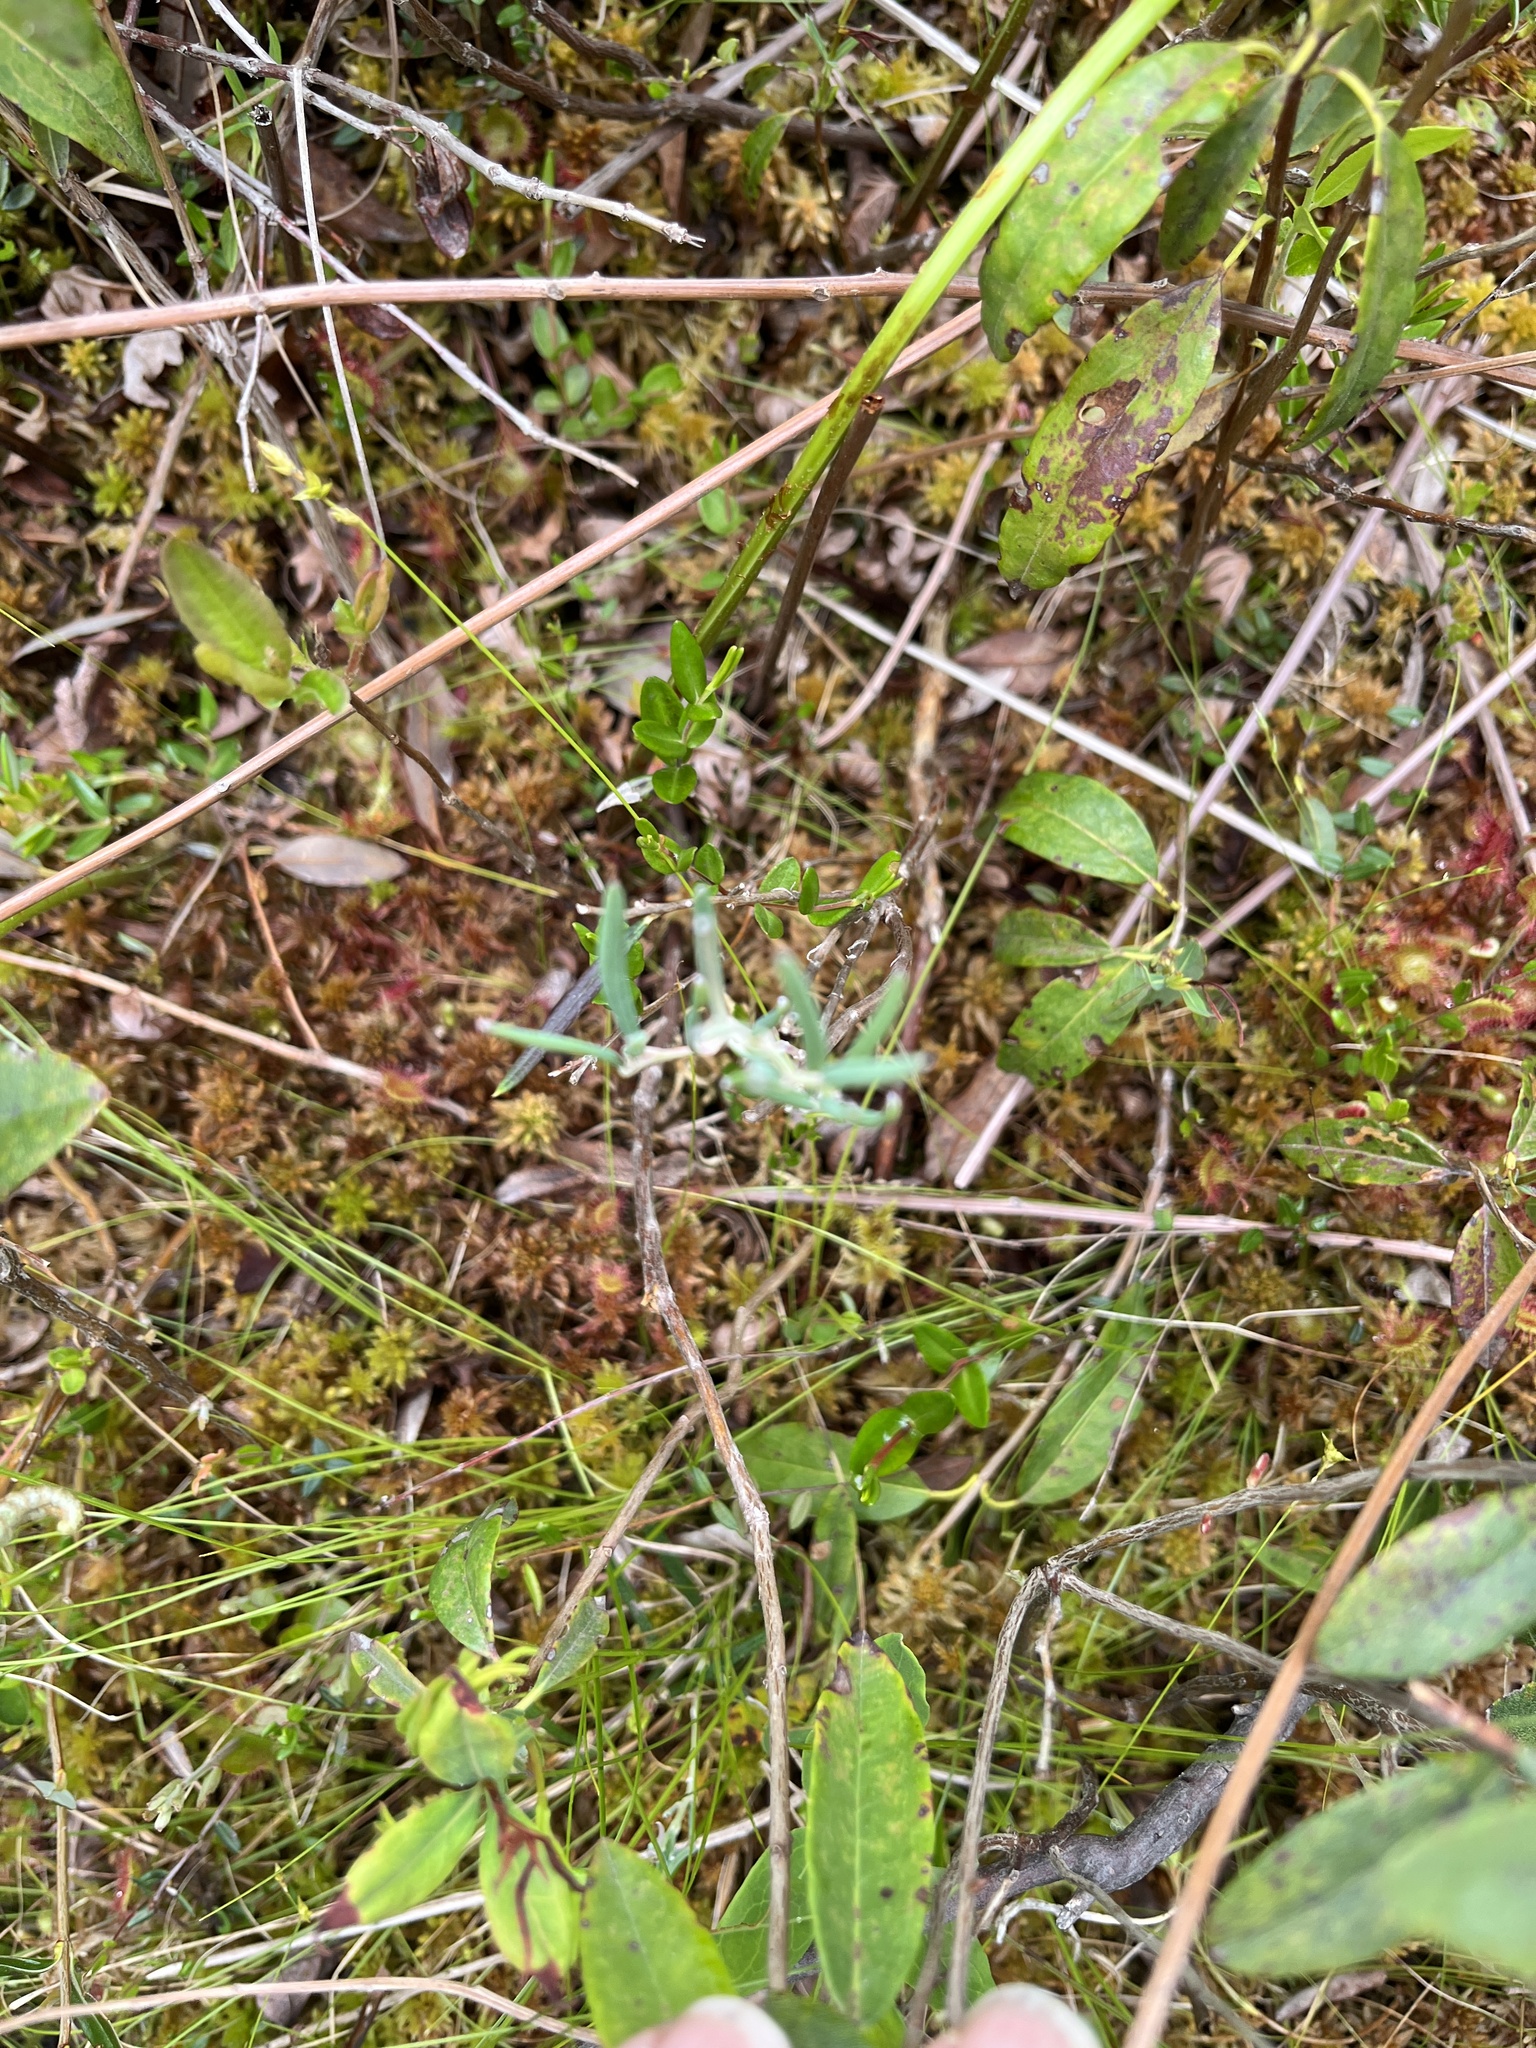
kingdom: Plantae
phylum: Tracheophyta
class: Magnoliopsida
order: Ericales
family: Ericaceae
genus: Andromeda
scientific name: Andromeda polifolia
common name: Bog-rosemary
